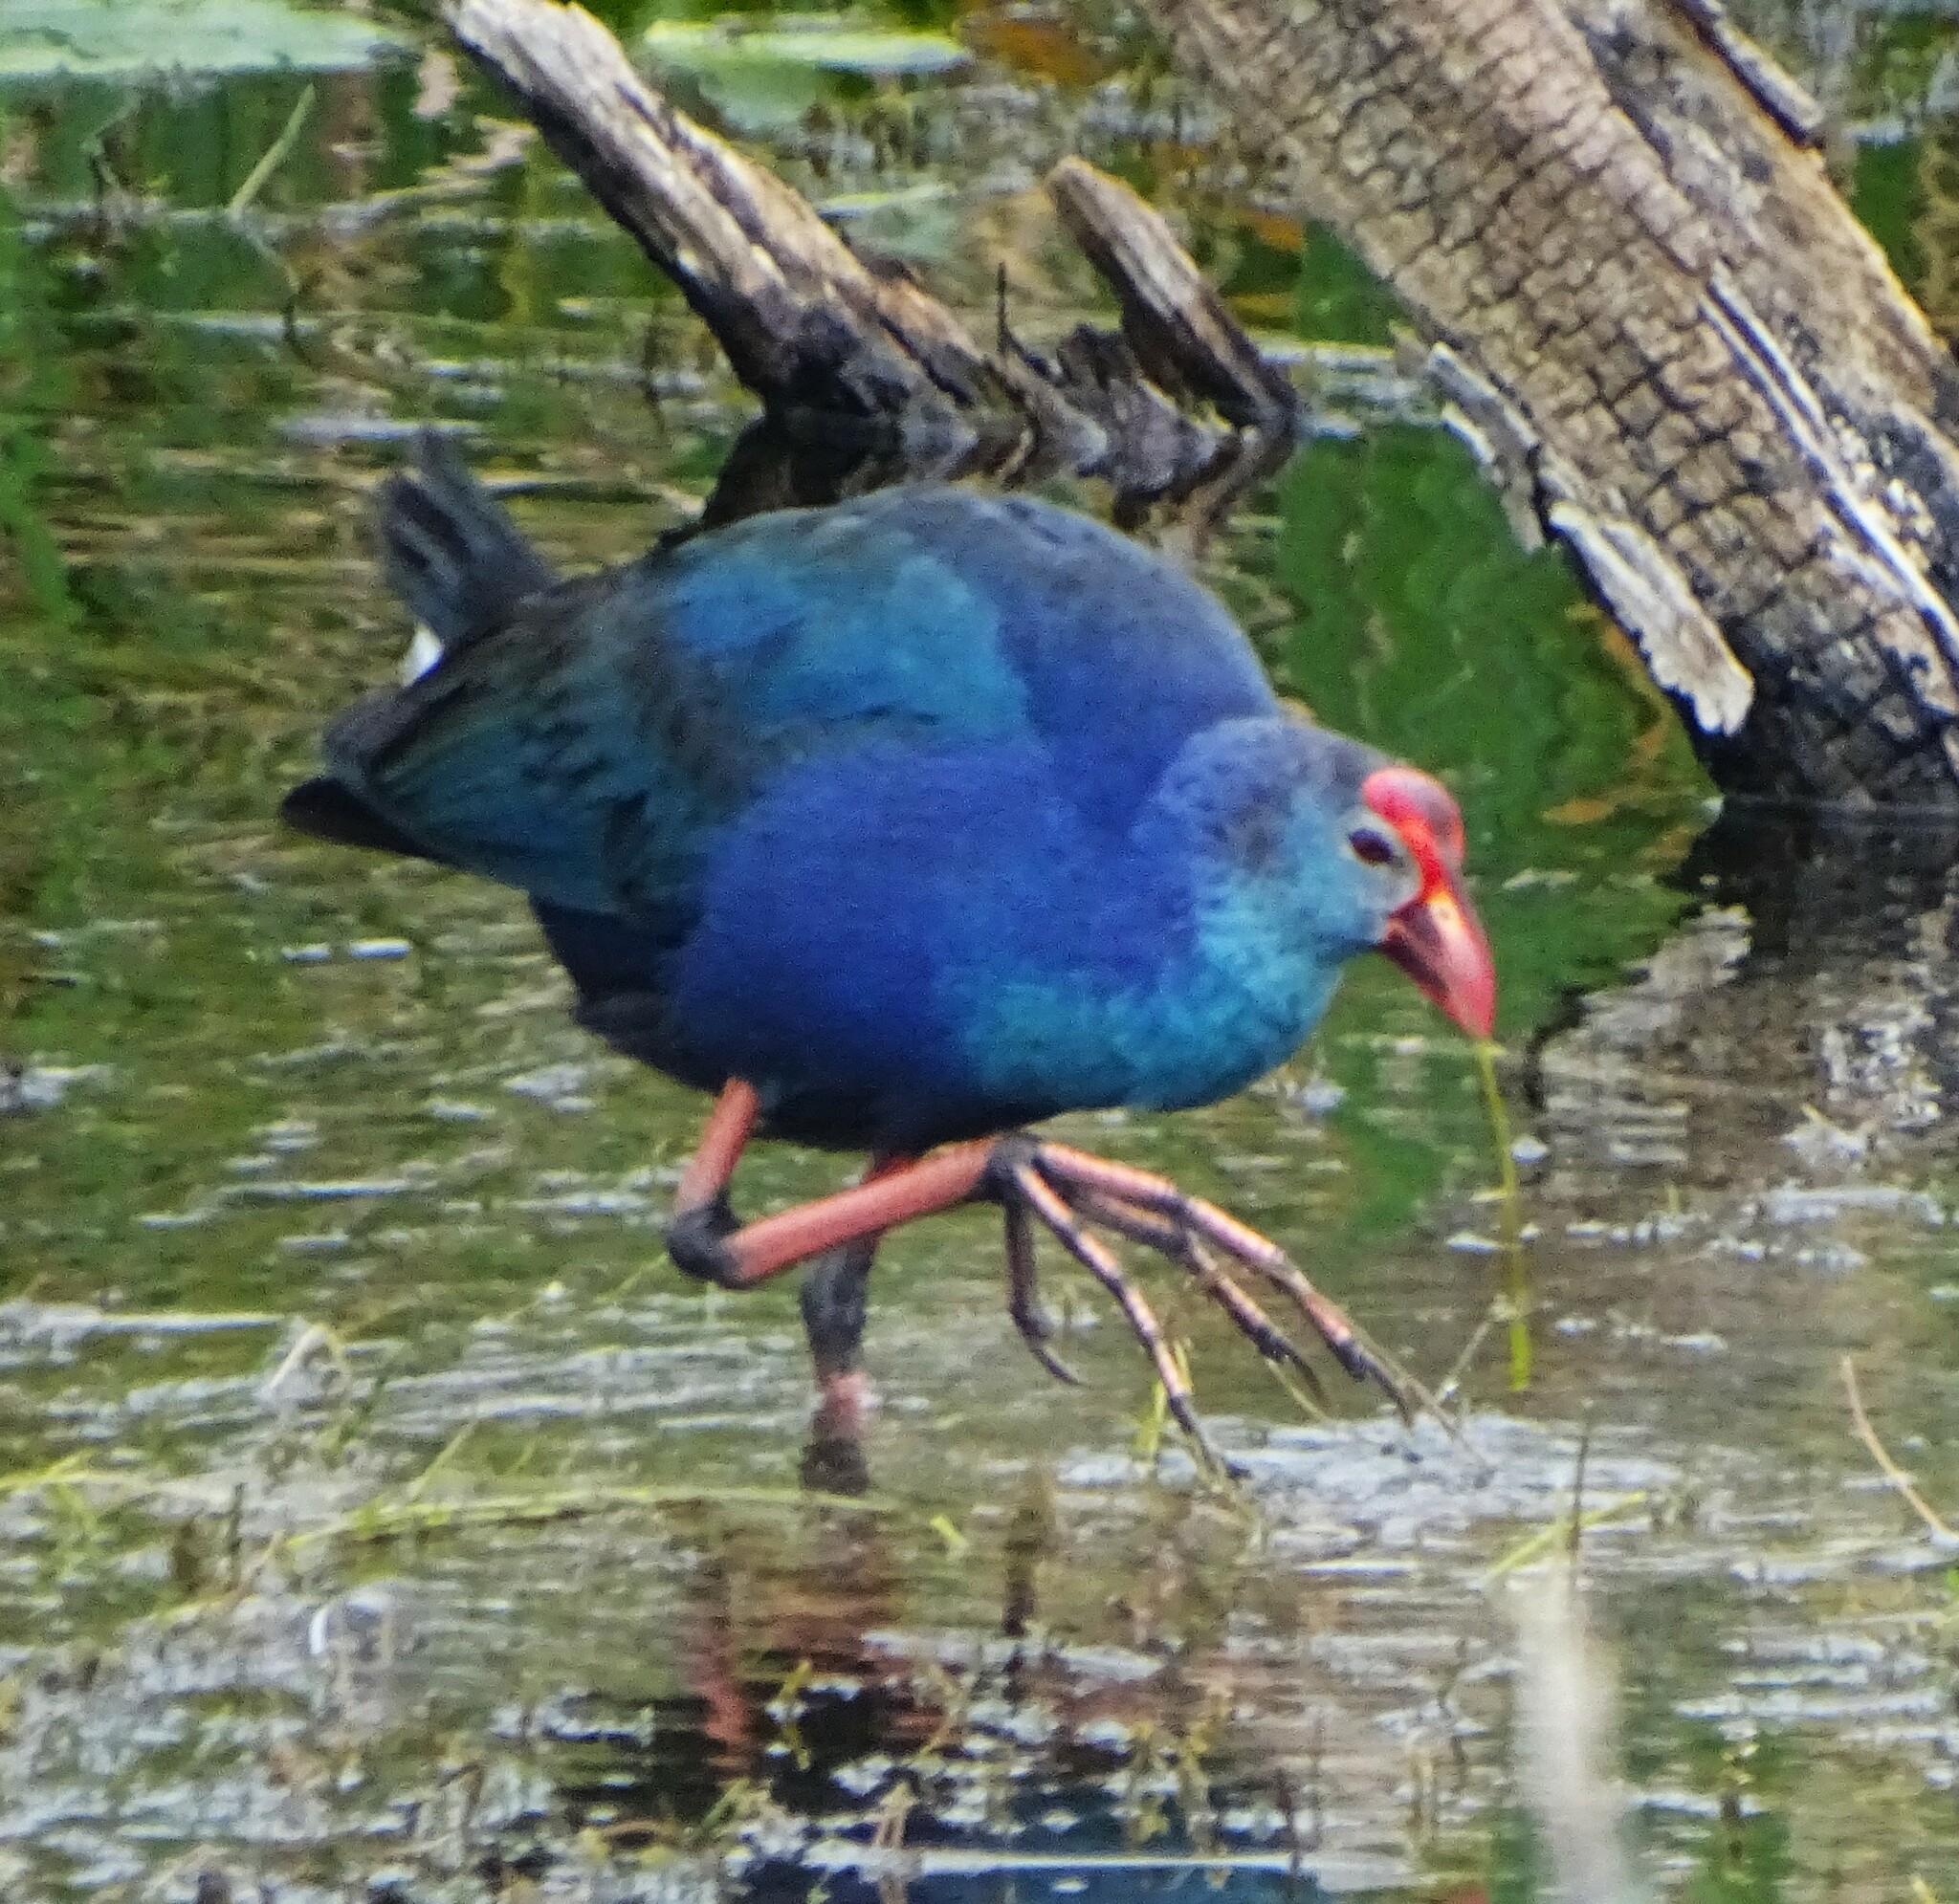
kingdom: Animalia
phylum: Chordata
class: Aves
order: Gruiformes
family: Rallidae
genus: Porphyrio
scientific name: Porphyrio porphyrio
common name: Purple swamphen
